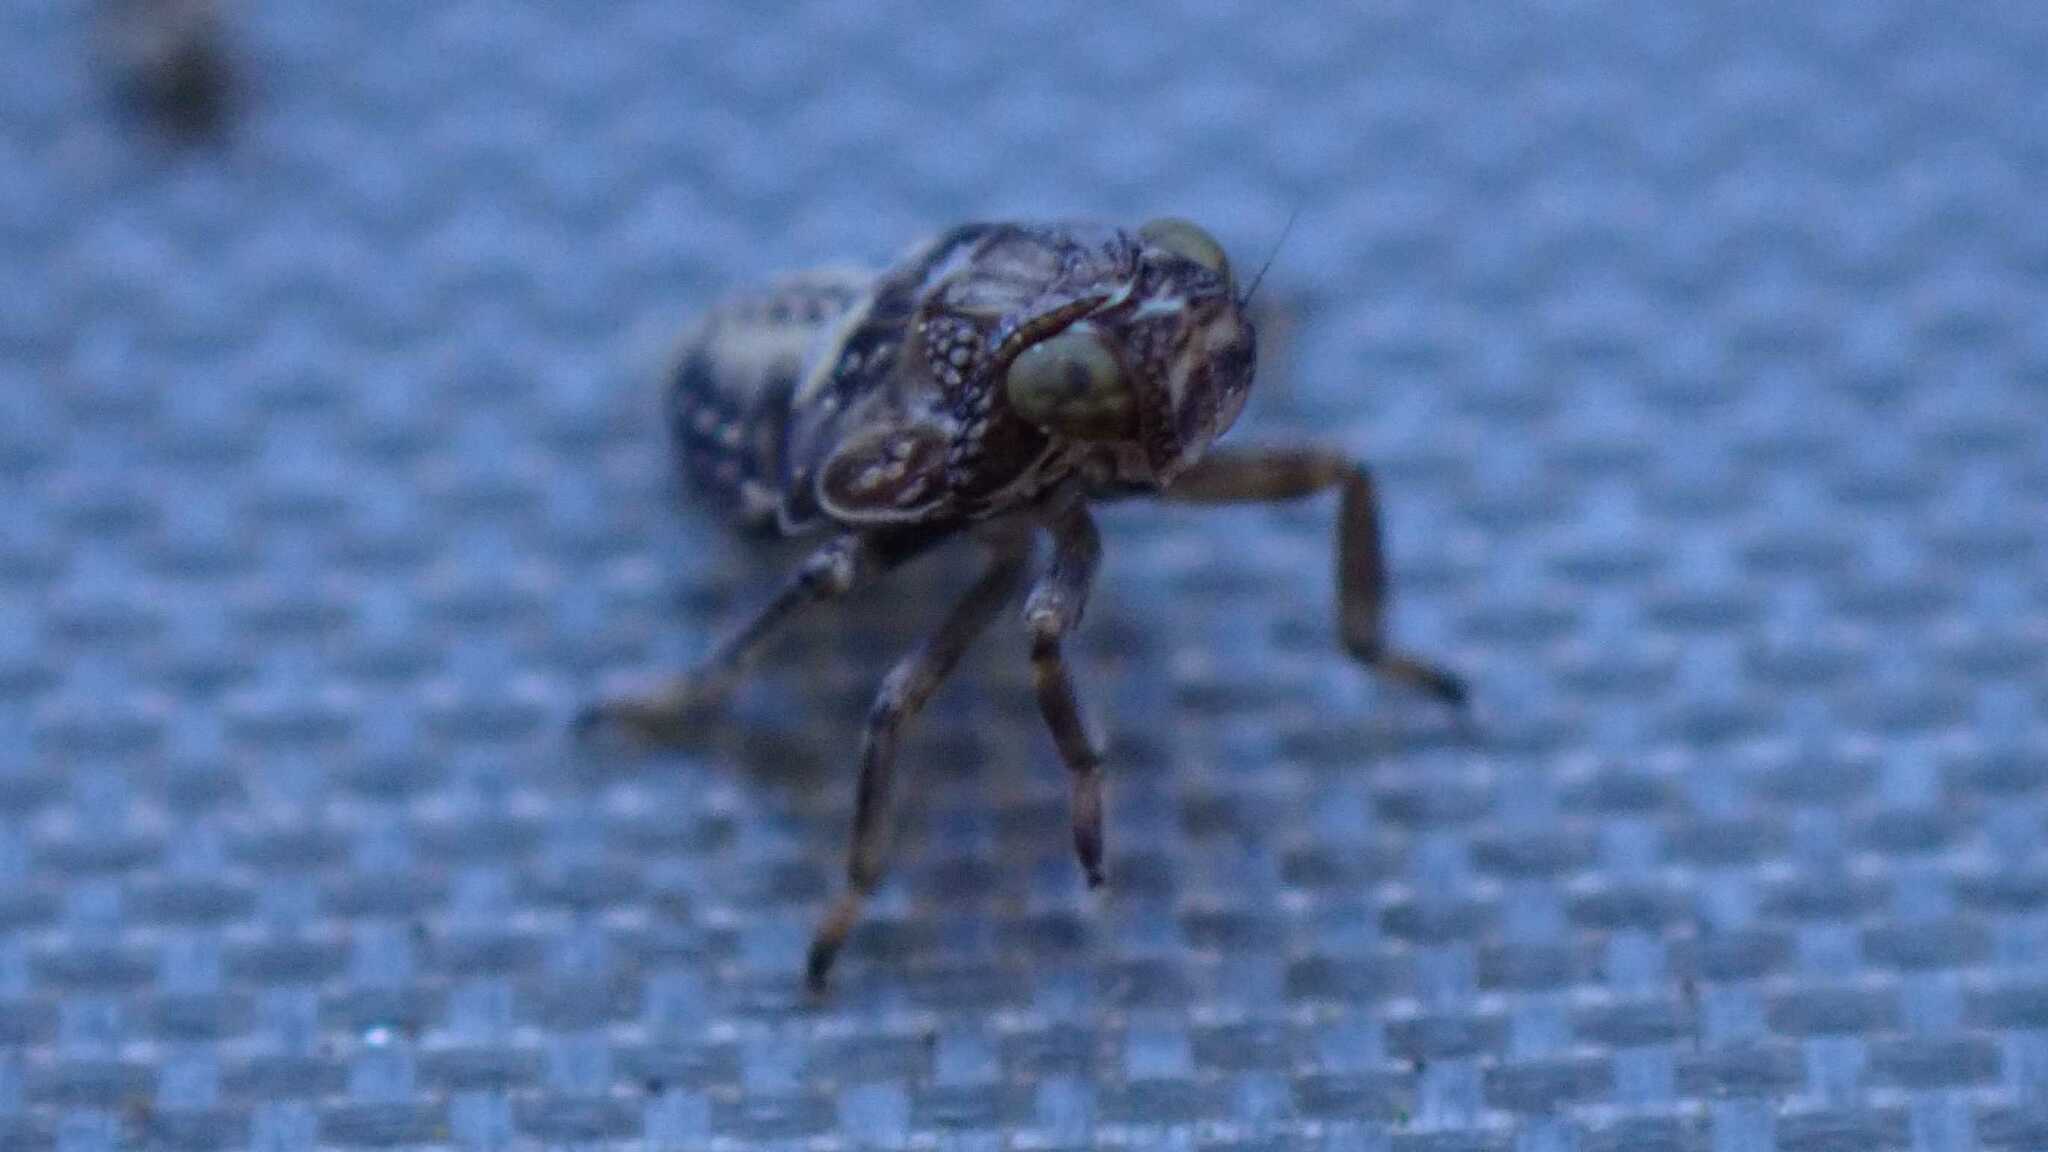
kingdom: Animalia
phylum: Arthropoda
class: Insecta
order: Hemiptera
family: Issidae
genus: Issus
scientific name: Issus coleoptratus
